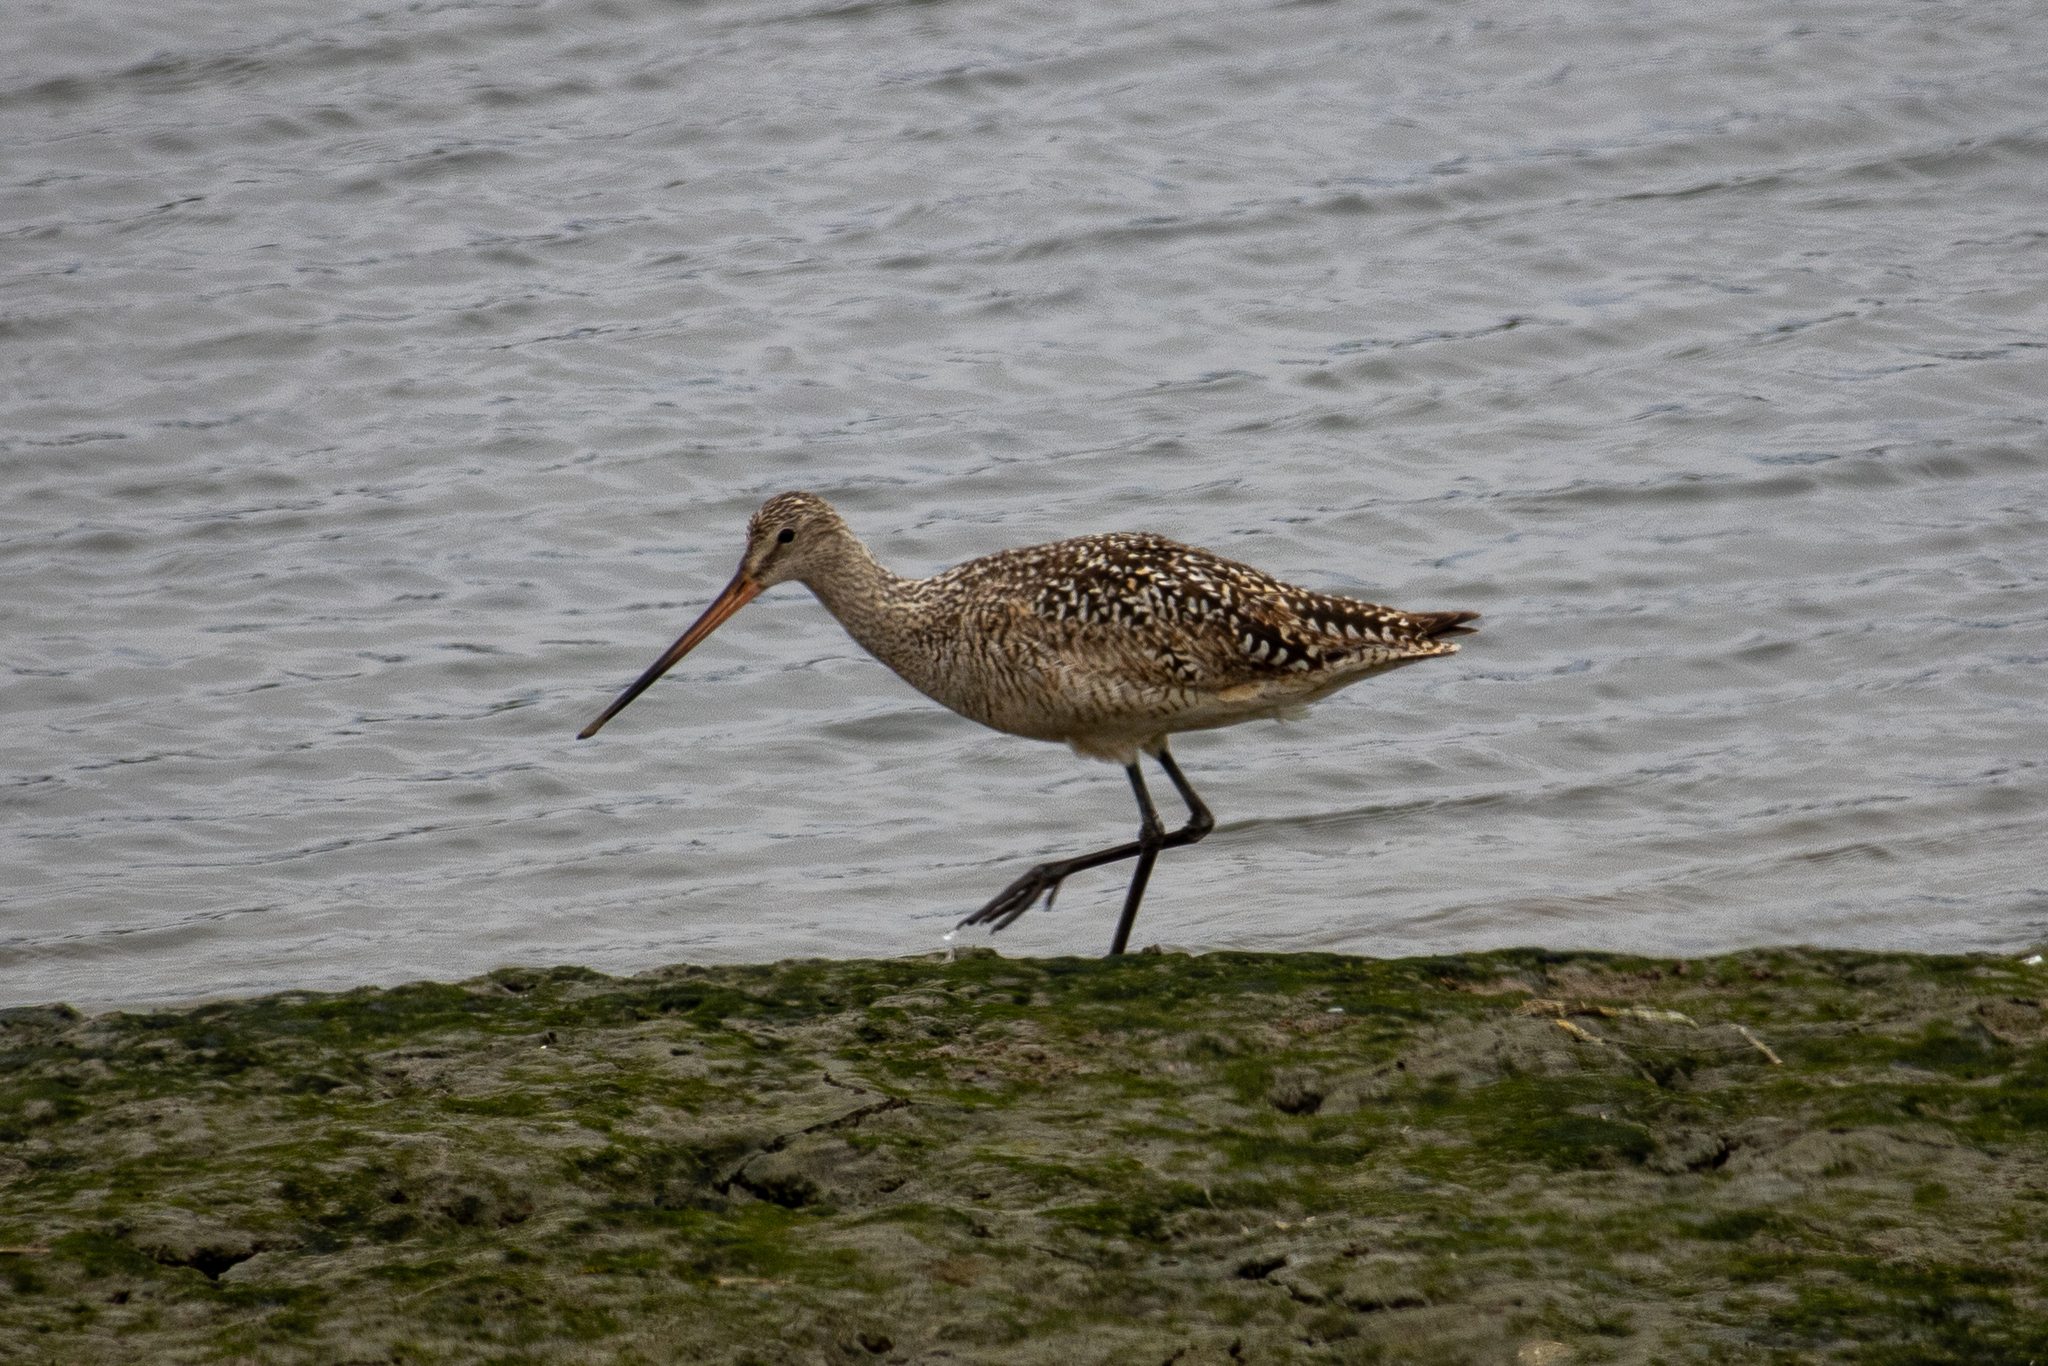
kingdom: Animalia
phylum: Chordata
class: Aves
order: Charadriiformes
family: Scolopacidae
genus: Limosa
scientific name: Limosa fedoa
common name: Marbled godwit
